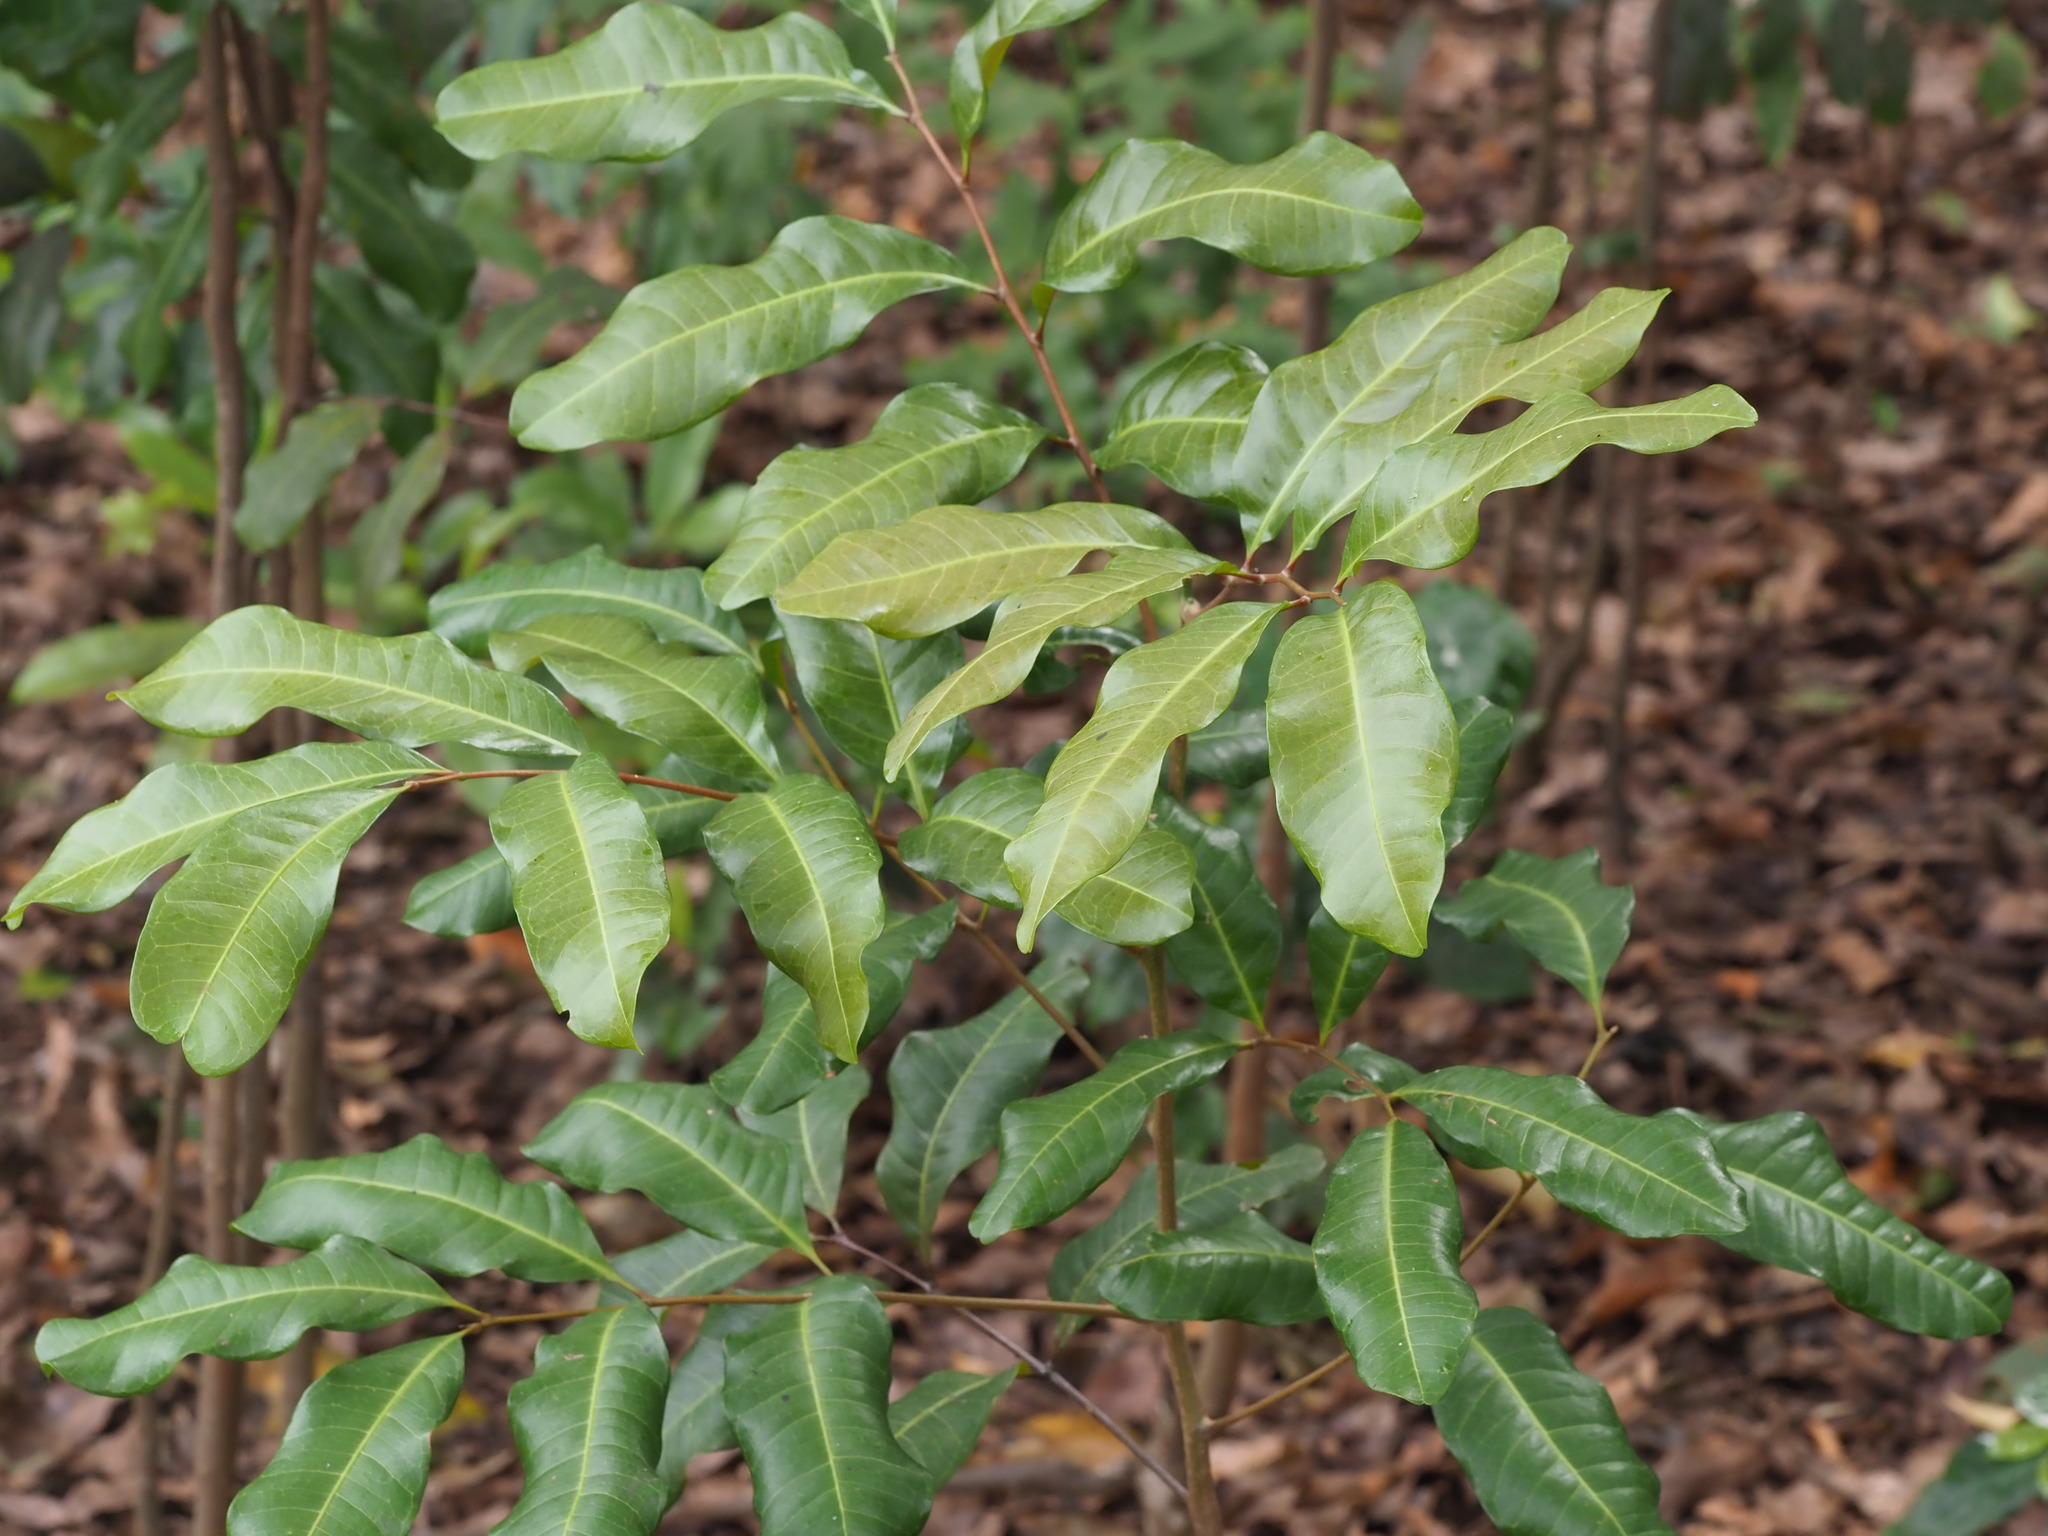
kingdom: Plantae
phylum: Tracheophyta
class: Magnoliopsida
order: Sapindales
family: Sapindaceae
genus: Cupaniopsis
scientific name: Cupaniopsis anacardioides
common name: Carrotwood
